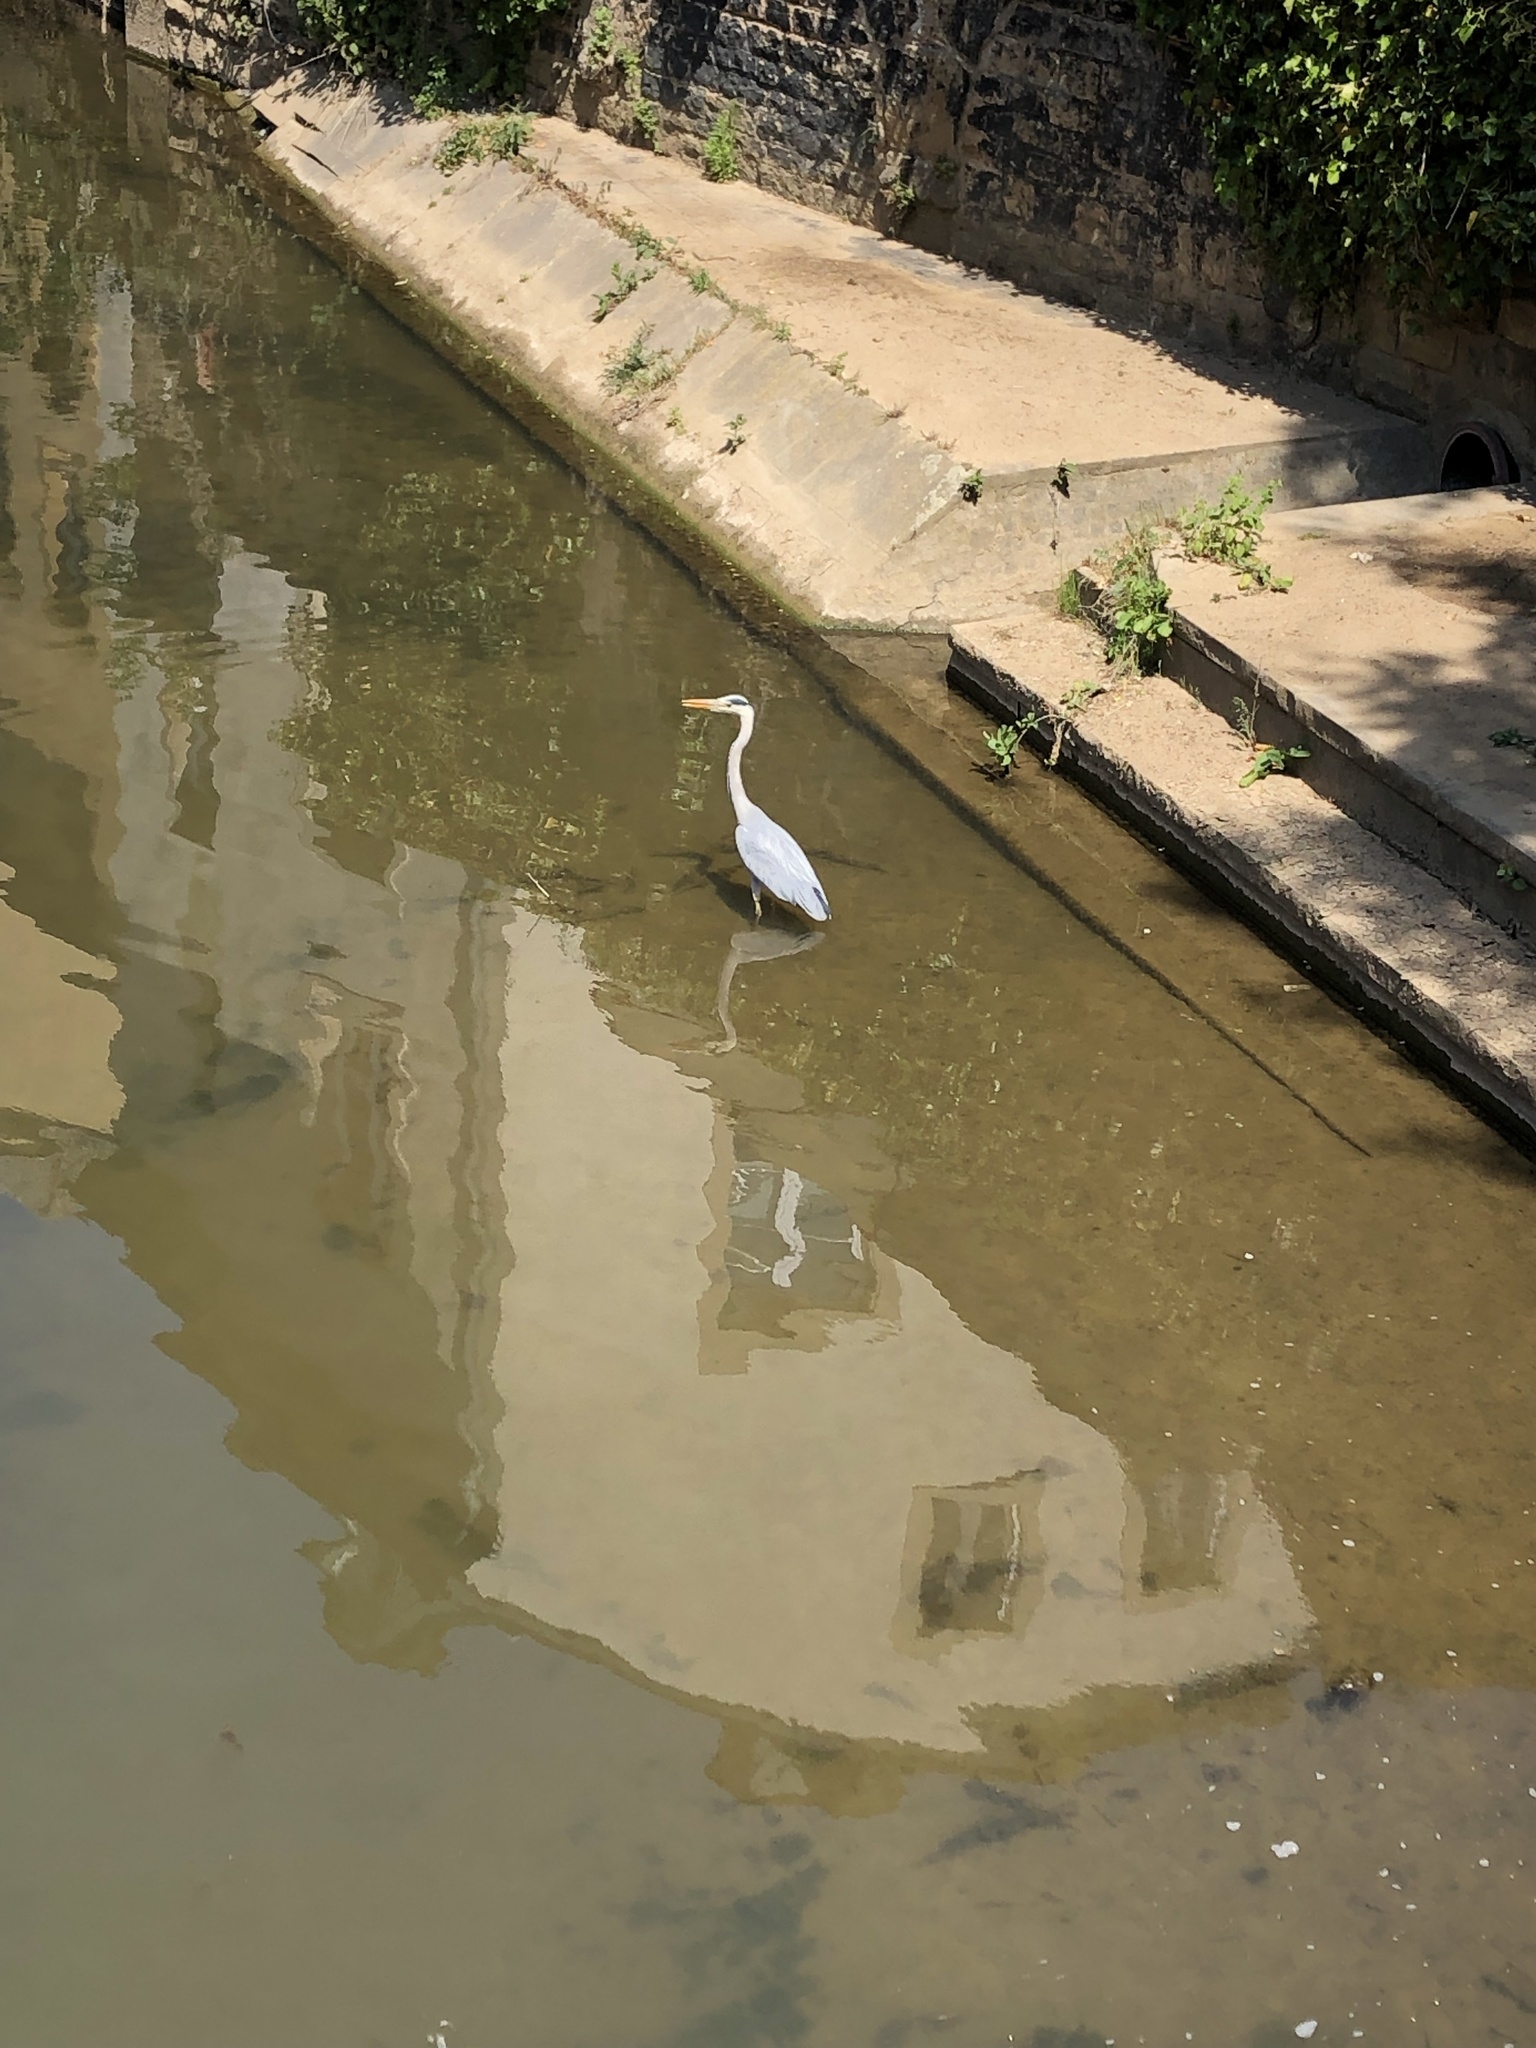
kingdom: Animalia
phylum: Chordata
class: Aves
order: Pelecaniformes
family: Ardeidae
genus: Ardea
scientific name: Ardea cinerea
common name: Grey heron
